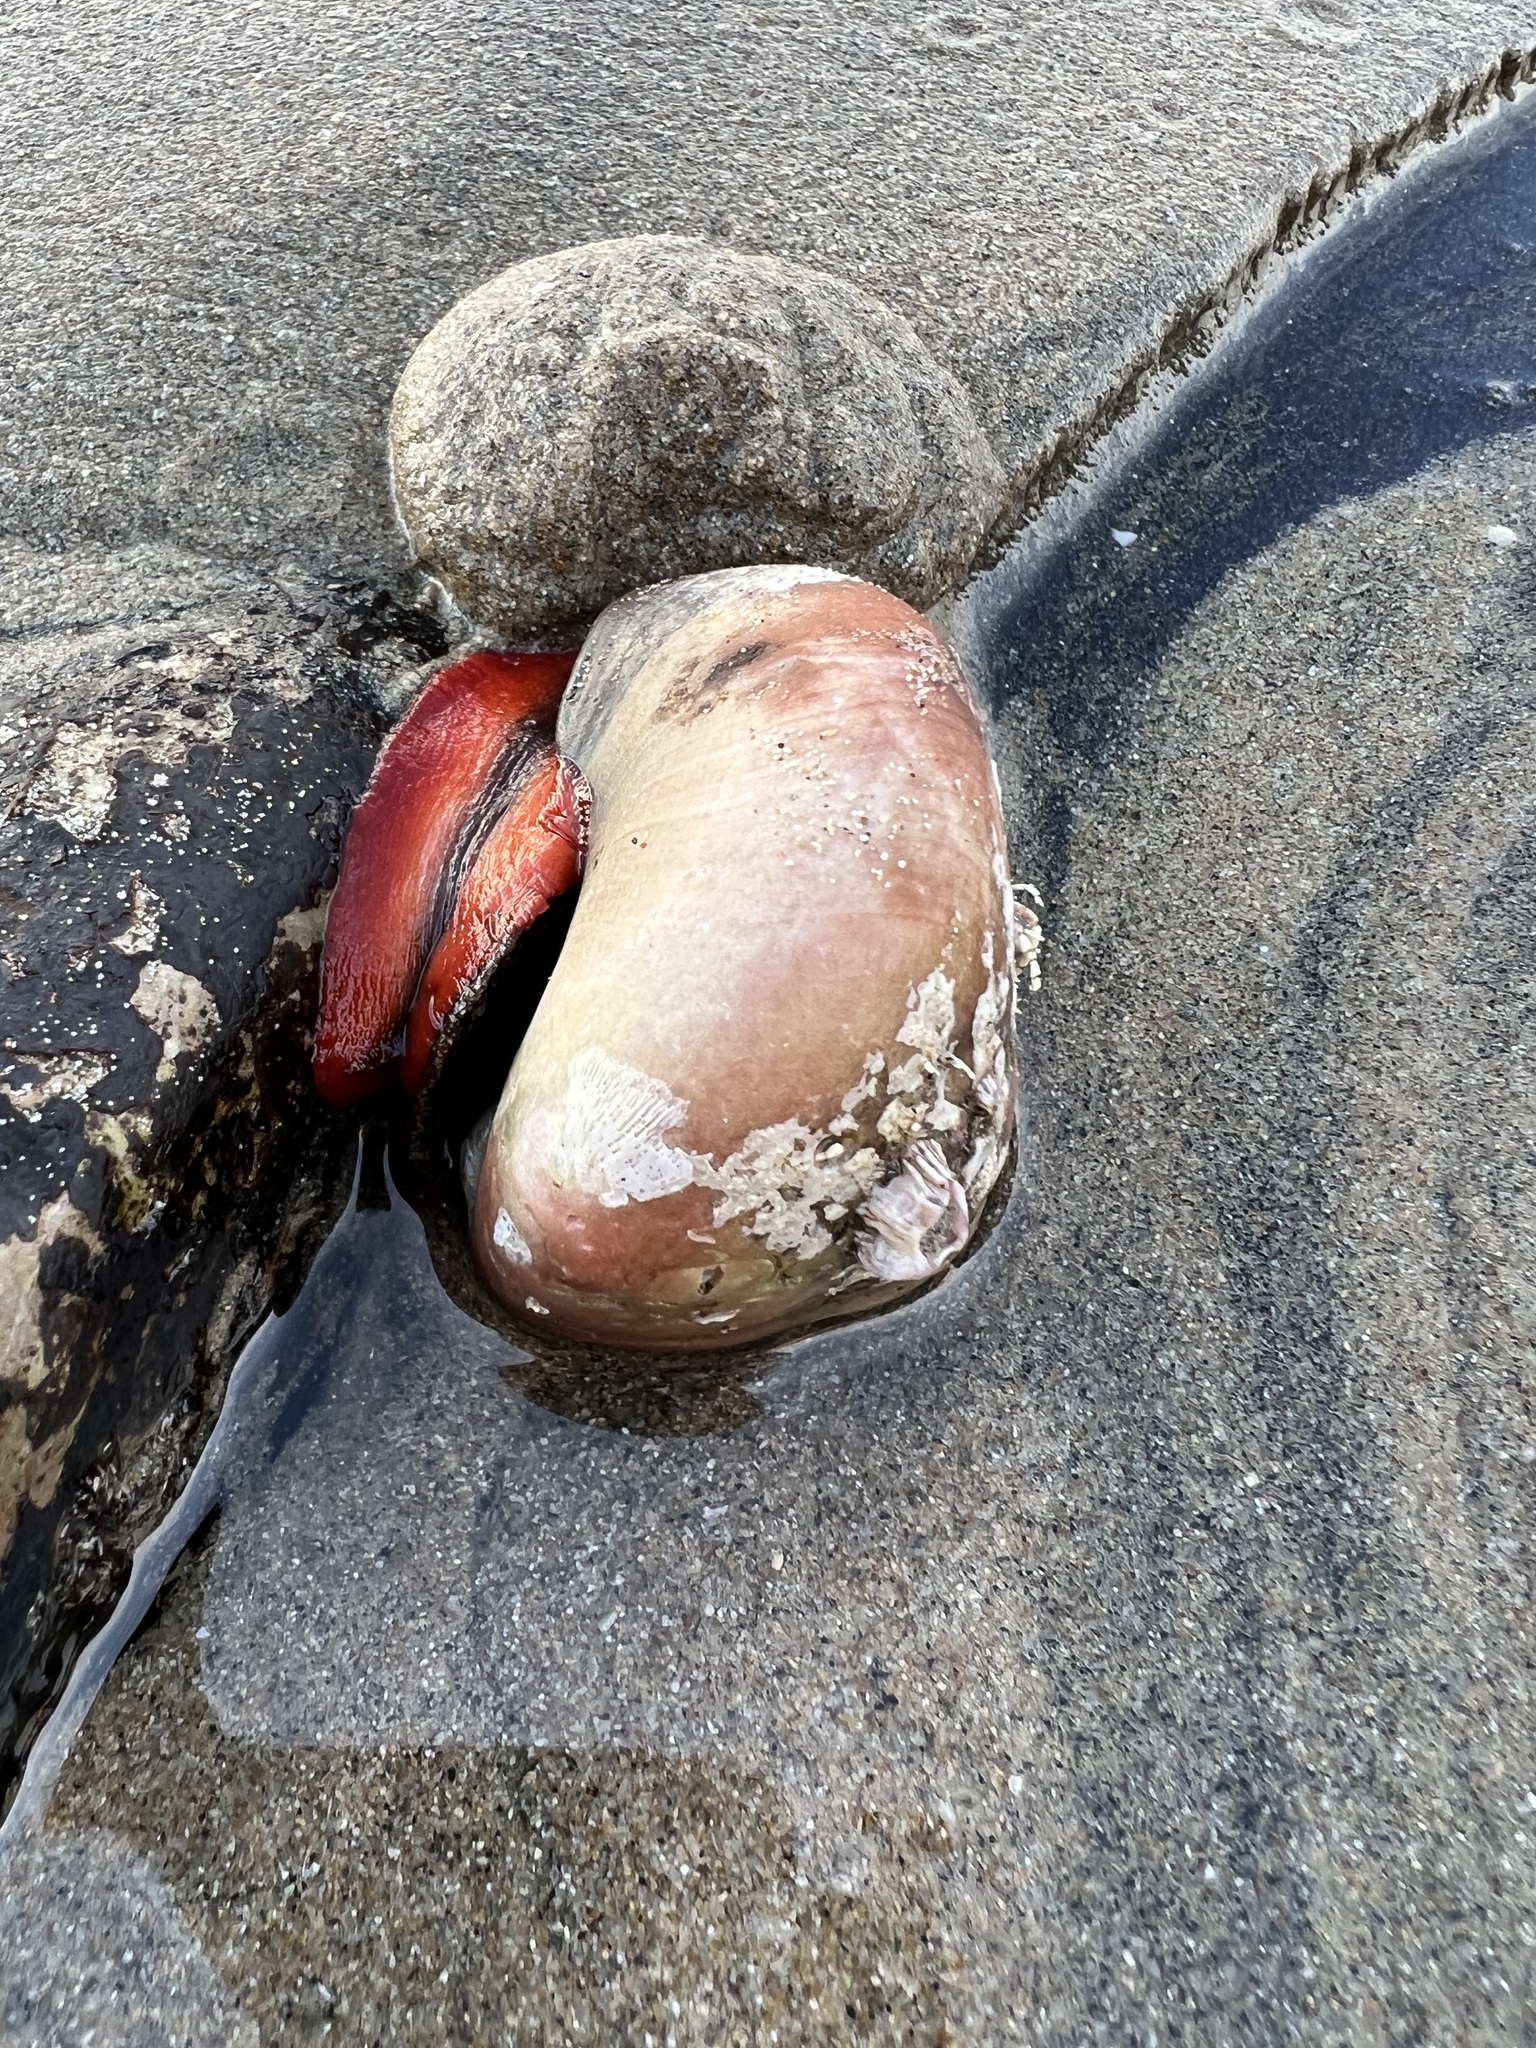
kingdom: Animalia
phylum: Mollusca
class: Gastropoda
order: Trochida
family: Tegulidae
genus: Norrisia
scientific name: Norrisia norrisii
